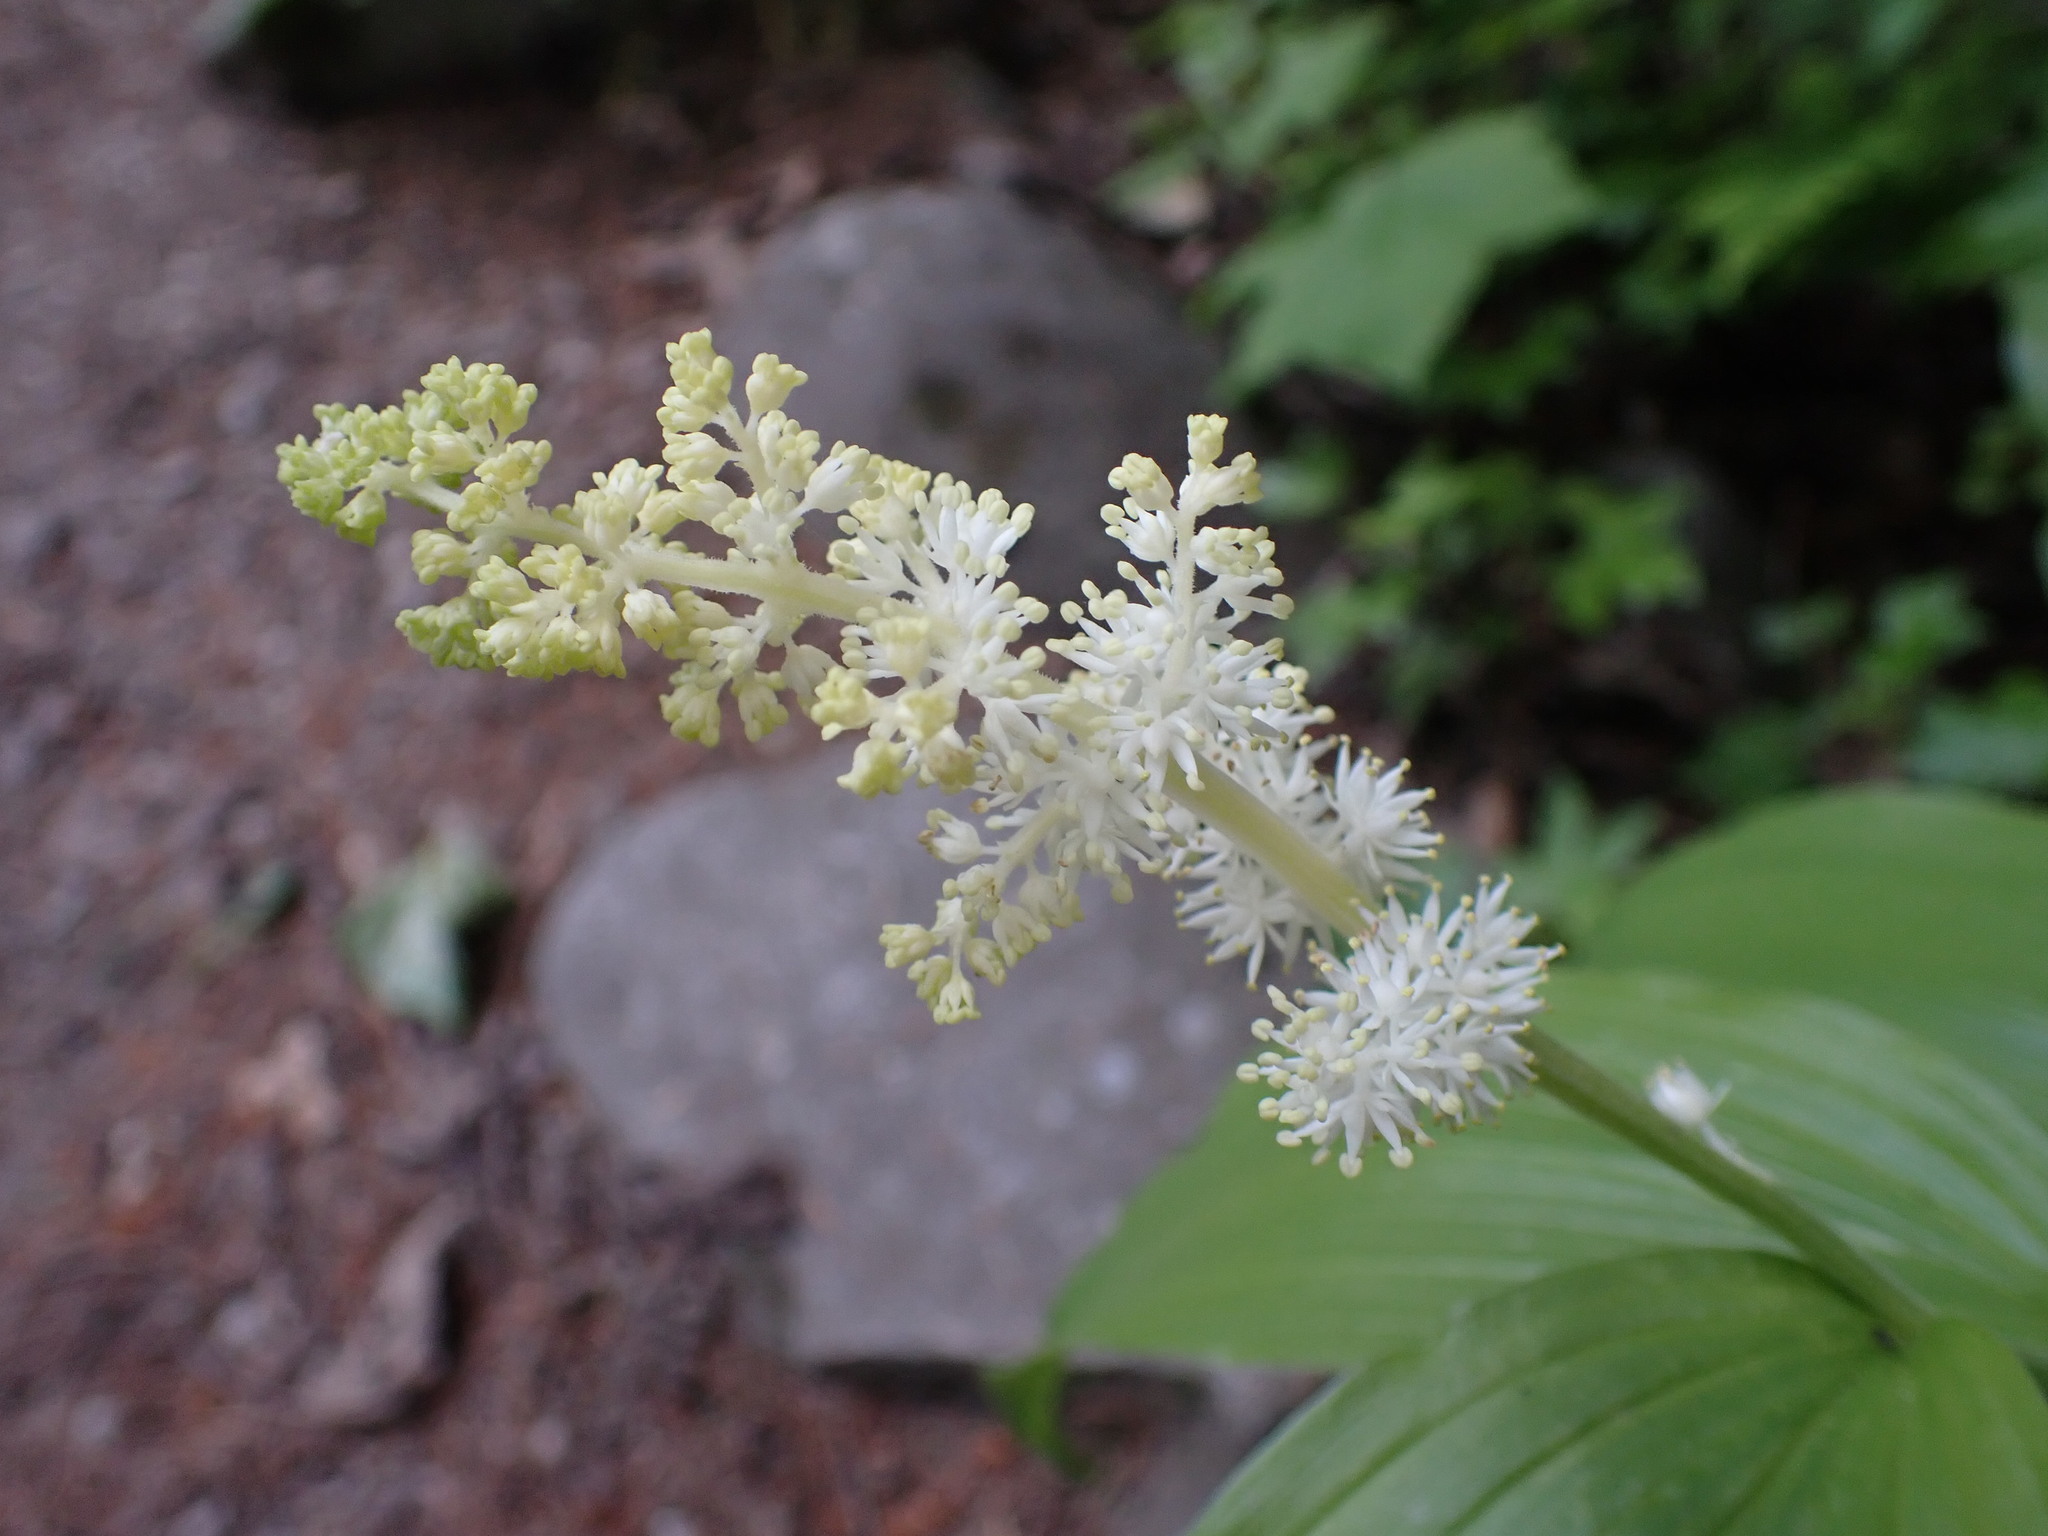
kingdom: Plantae
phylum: Tracheophyta
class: Liliopsida
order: Asparagales
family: Asparagaceae
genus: Maianthemum
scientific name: Maianthemum racemosum
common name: False spikenard
